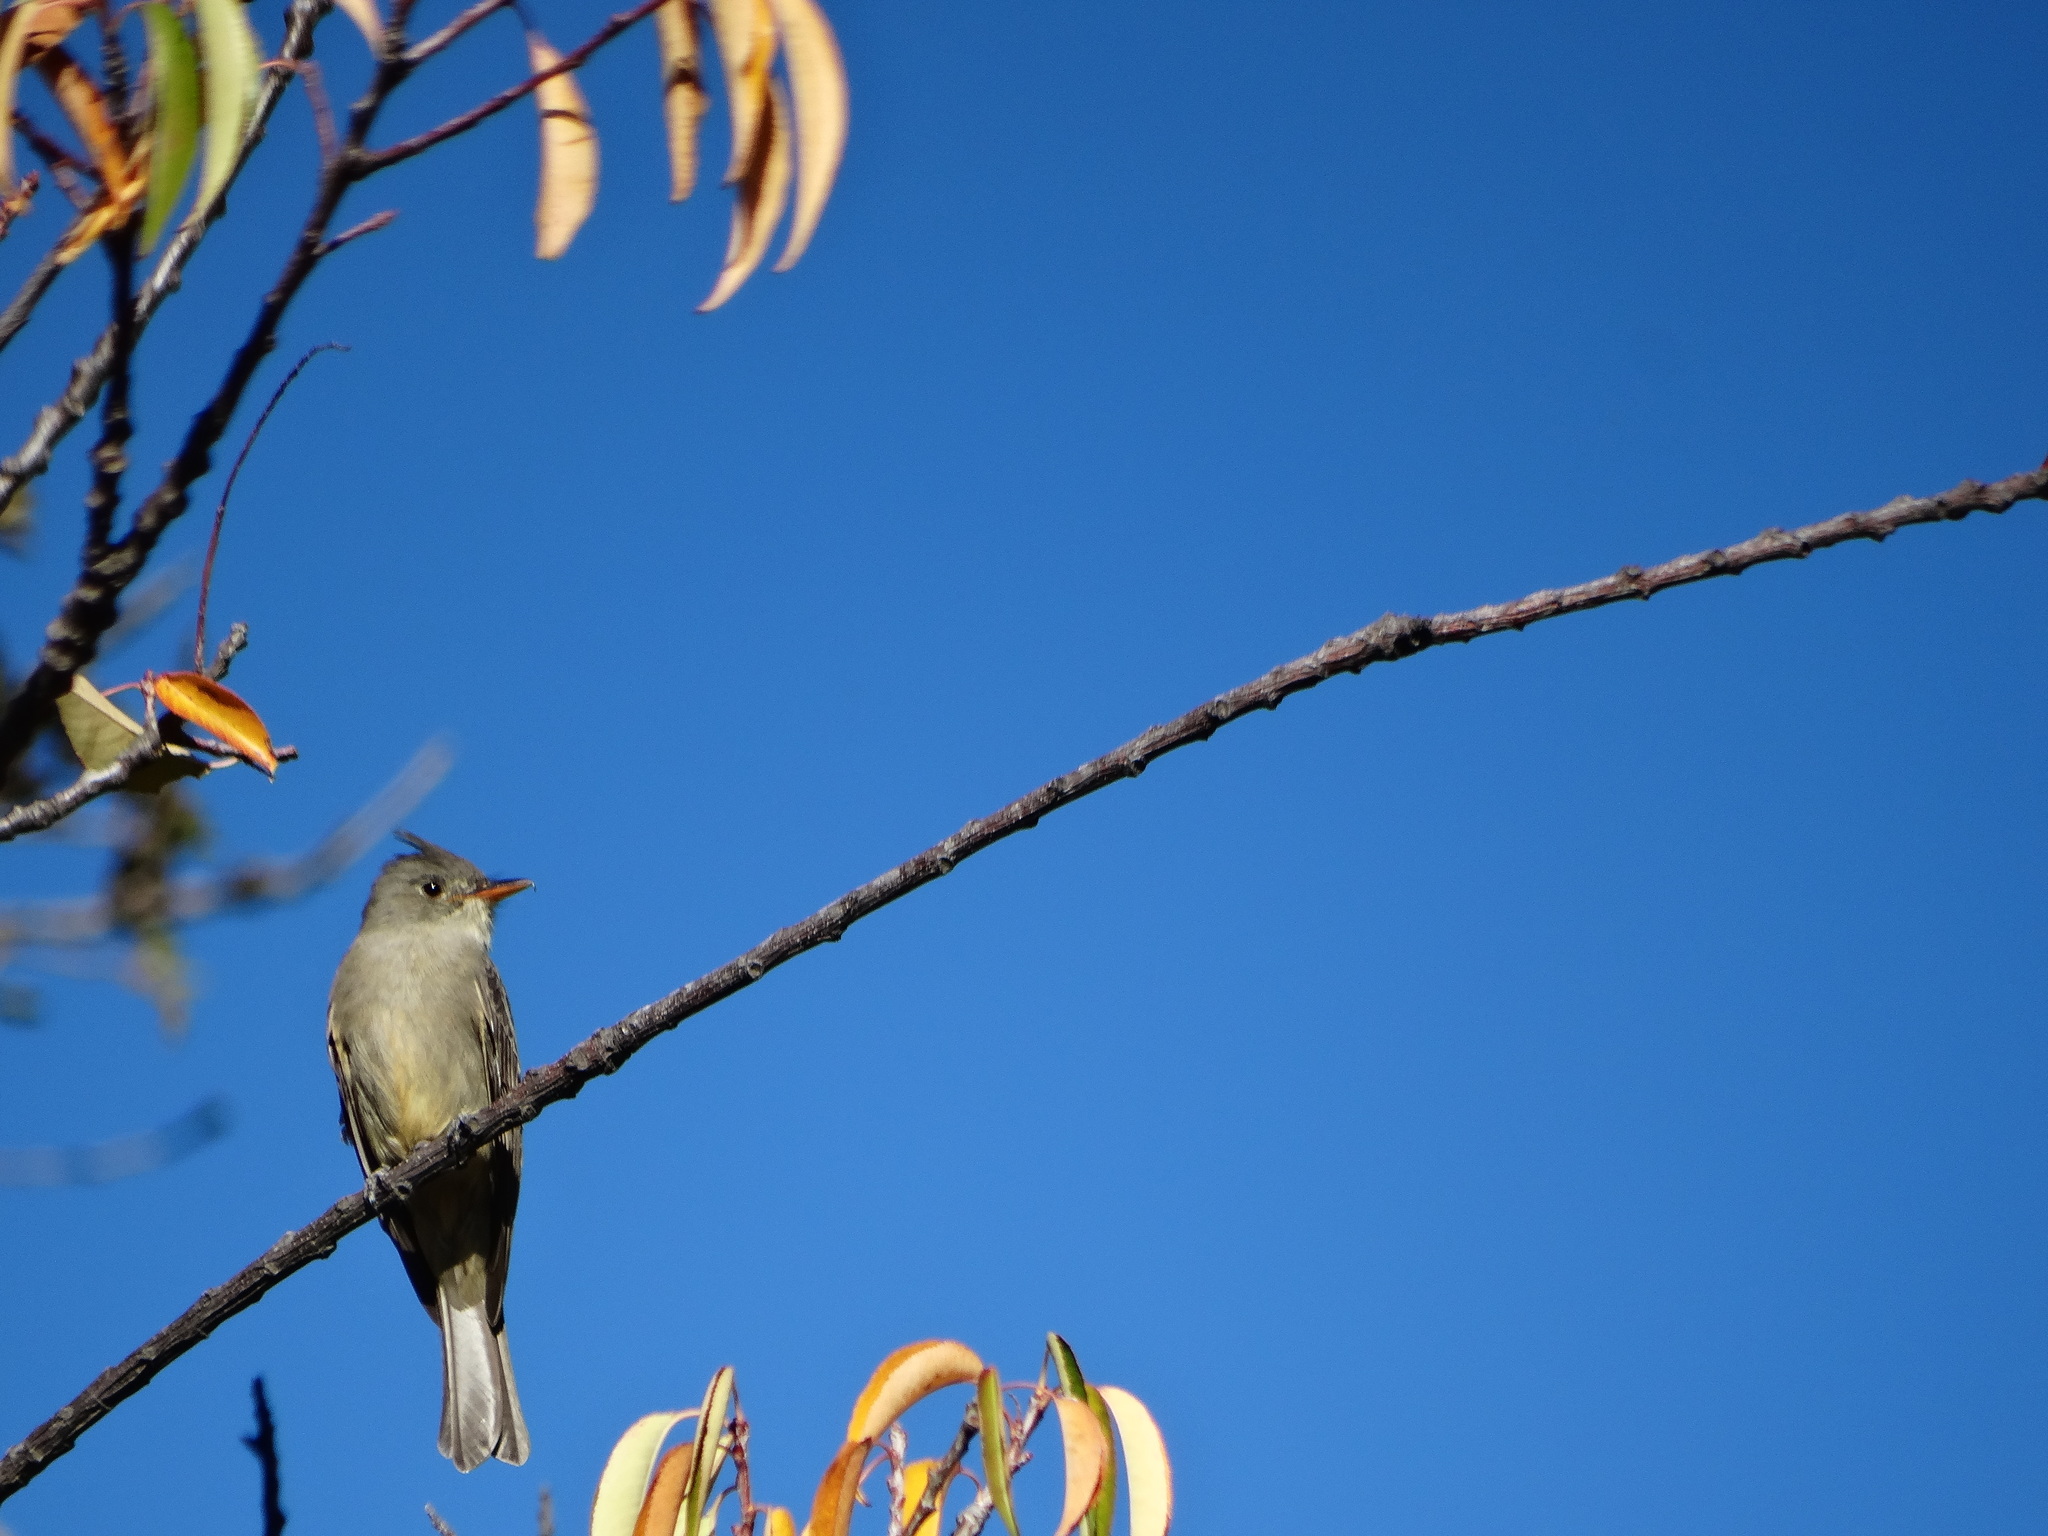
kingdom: Animalia
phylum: Chordata
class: Aves
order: Passeriformes
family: Tyrannidae
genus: Contopus
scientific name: Contopus pertinax
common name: Greater pewee
